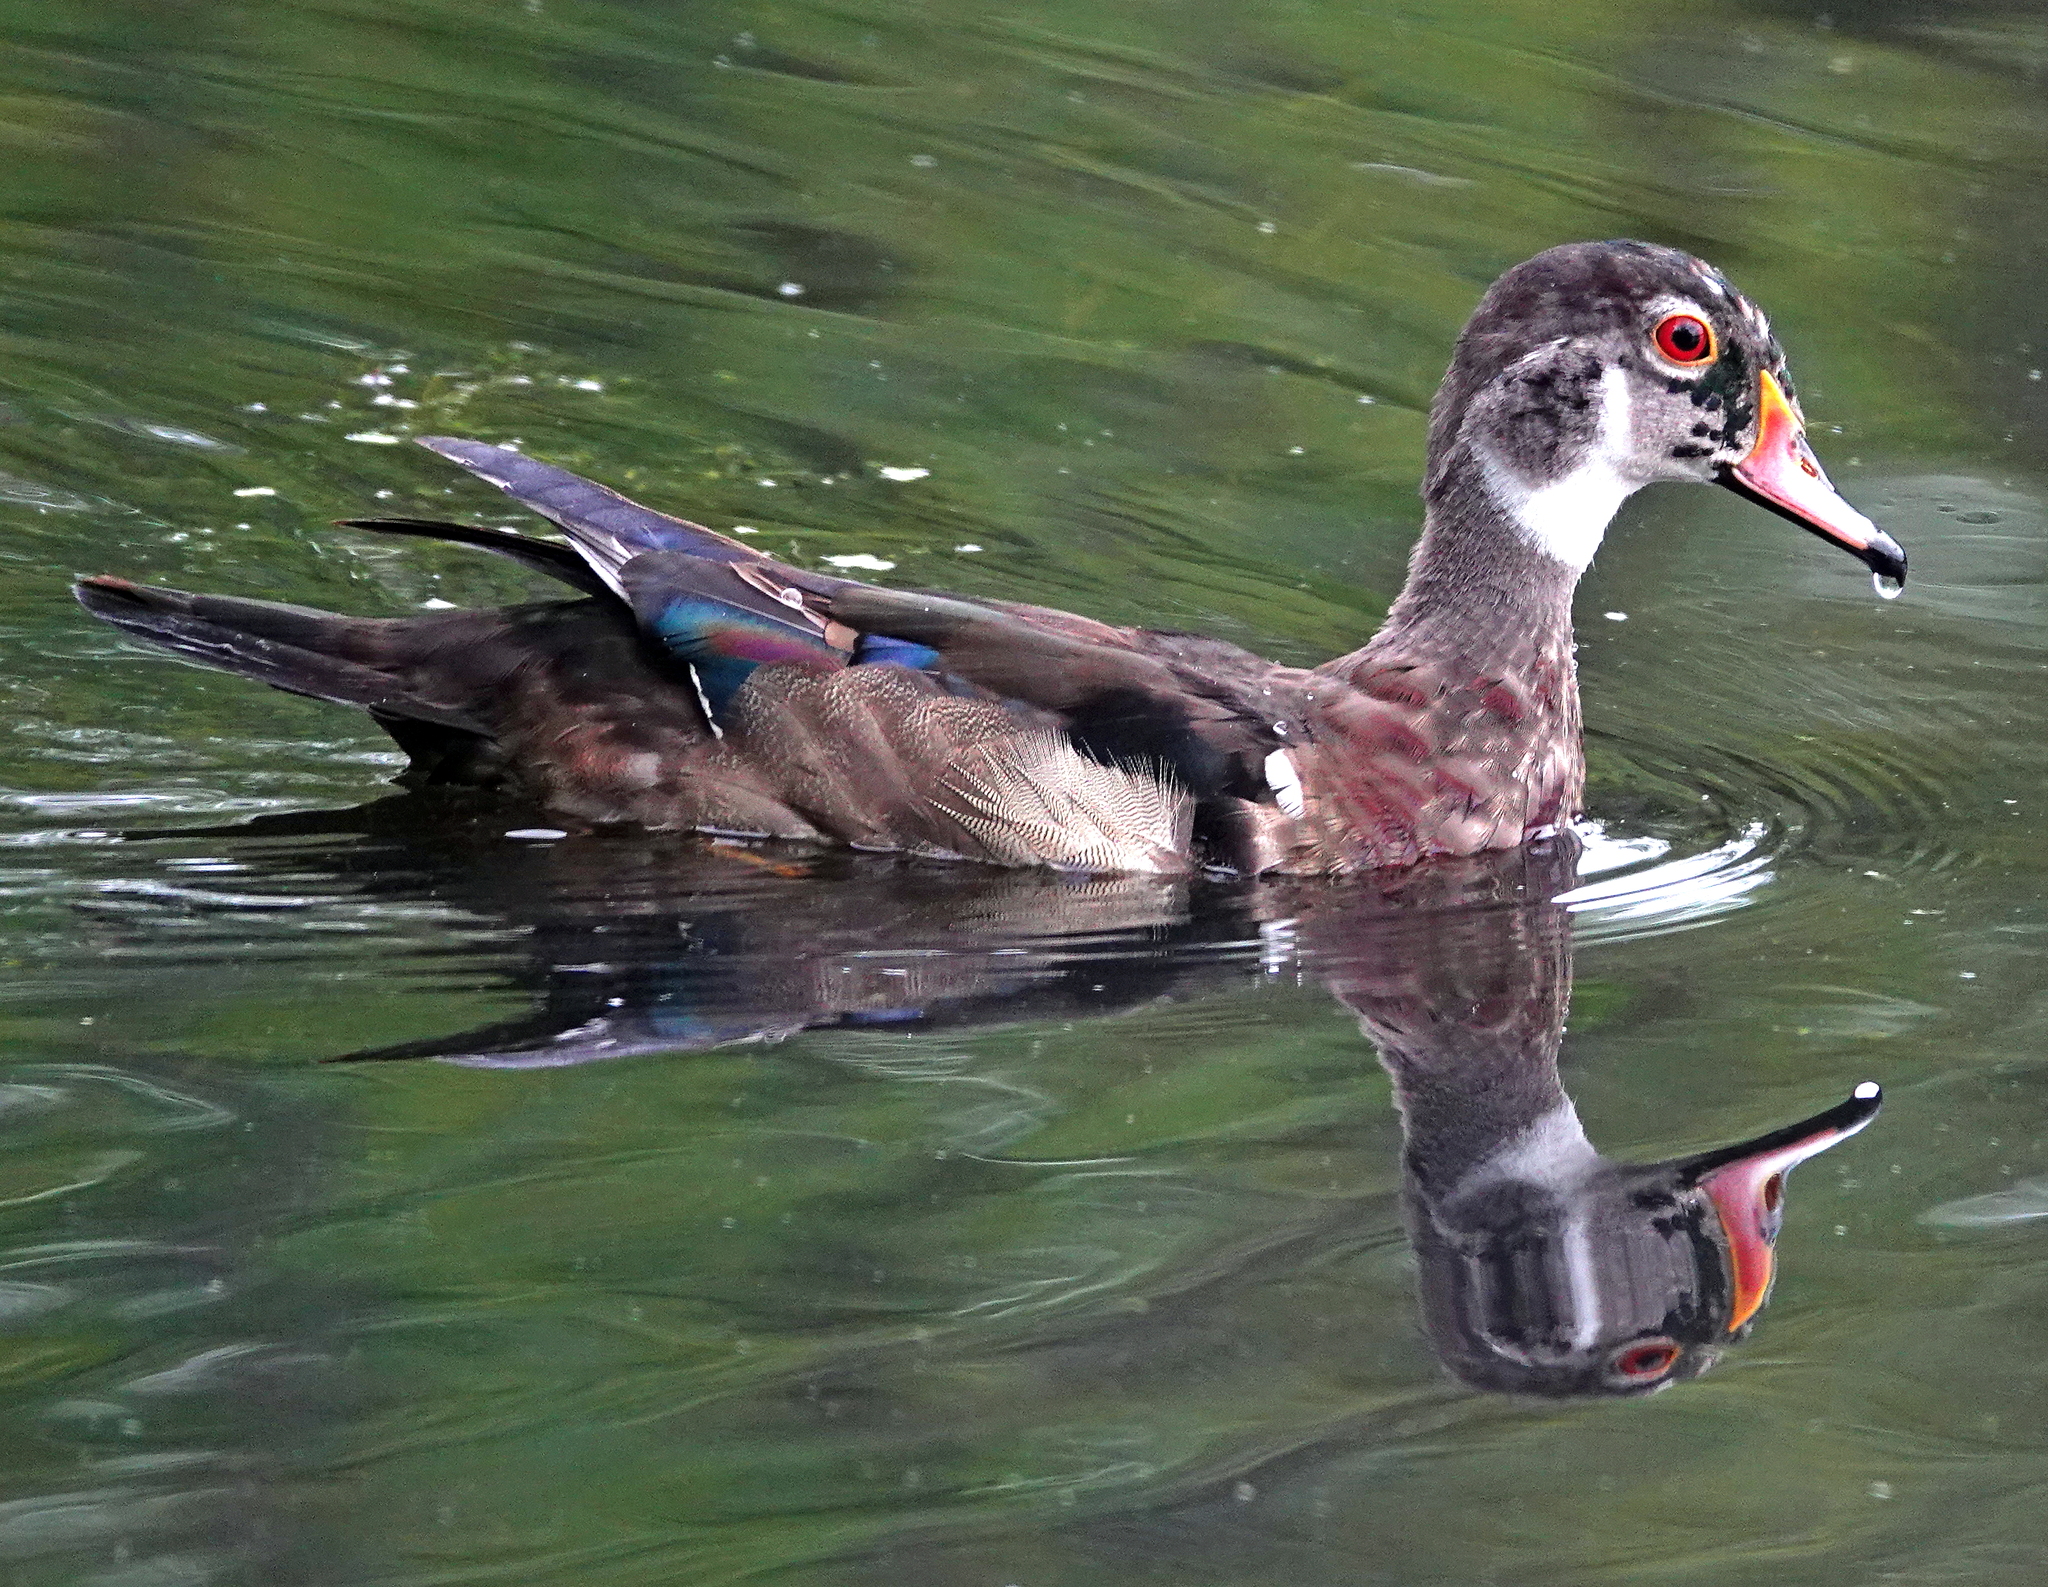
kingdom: Animalia
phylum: Chordata
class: Aves
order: Anseriformes
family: Anatidae
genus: Aix
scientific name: Aix sponsa
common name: Wood duck
